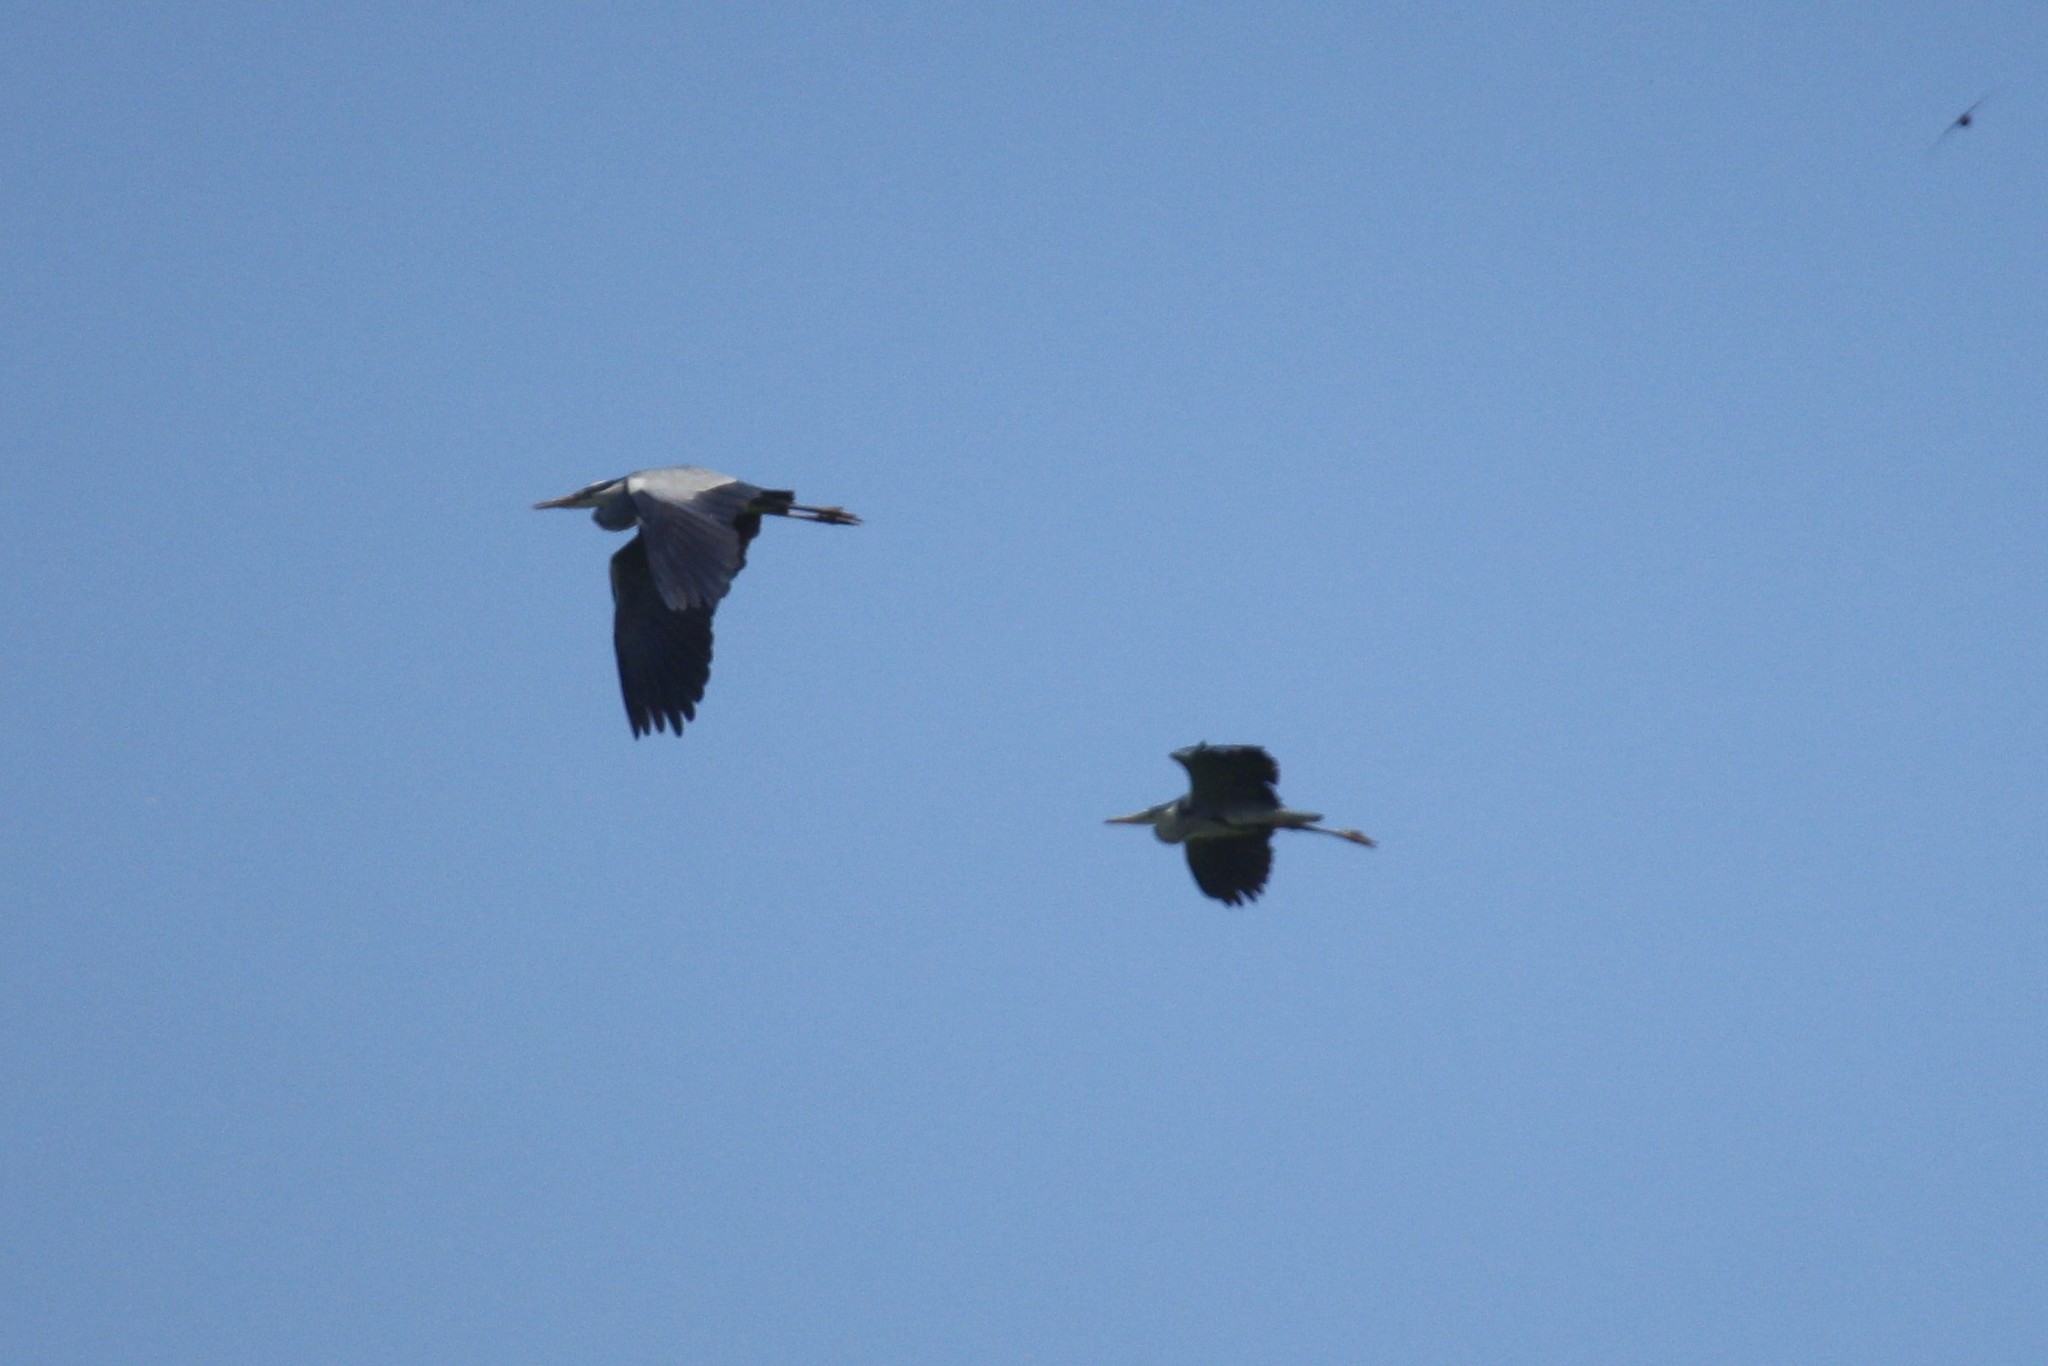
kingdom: Animalia
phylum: Chordata
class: Aves
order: Pelecaniformes
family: Ardeidae
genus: Ardea
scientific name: Ardea cinerea
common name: Grey heron
